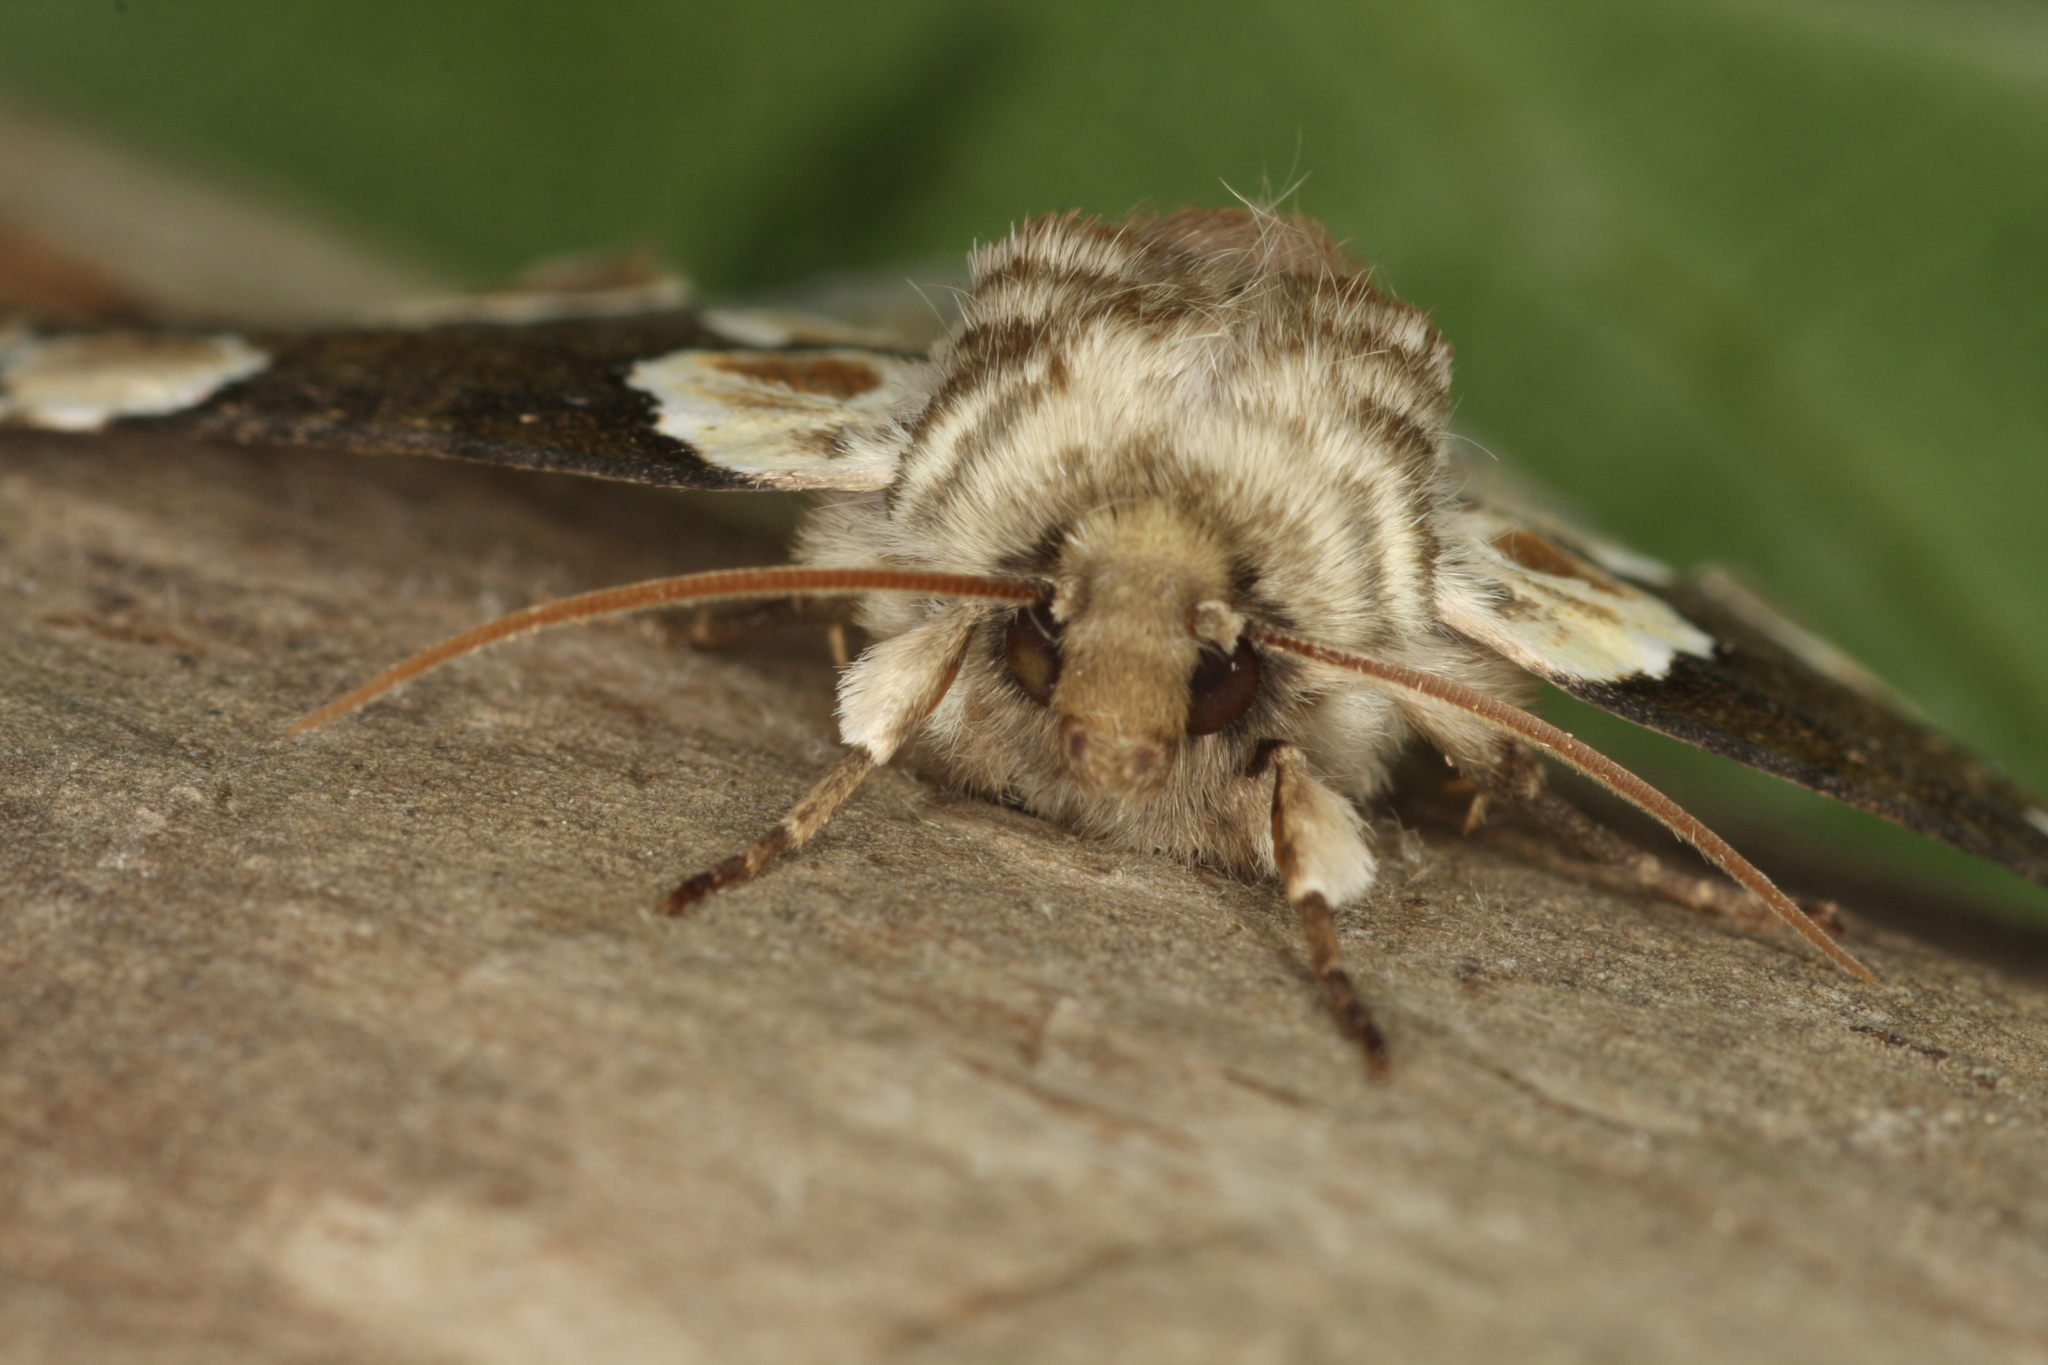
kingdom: Animalia
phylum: Arthropoda
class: Insecta
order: Lepidoptera
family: Drepanidae
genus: Thyatira
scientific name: Thyatira batis
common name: Peach blossom
